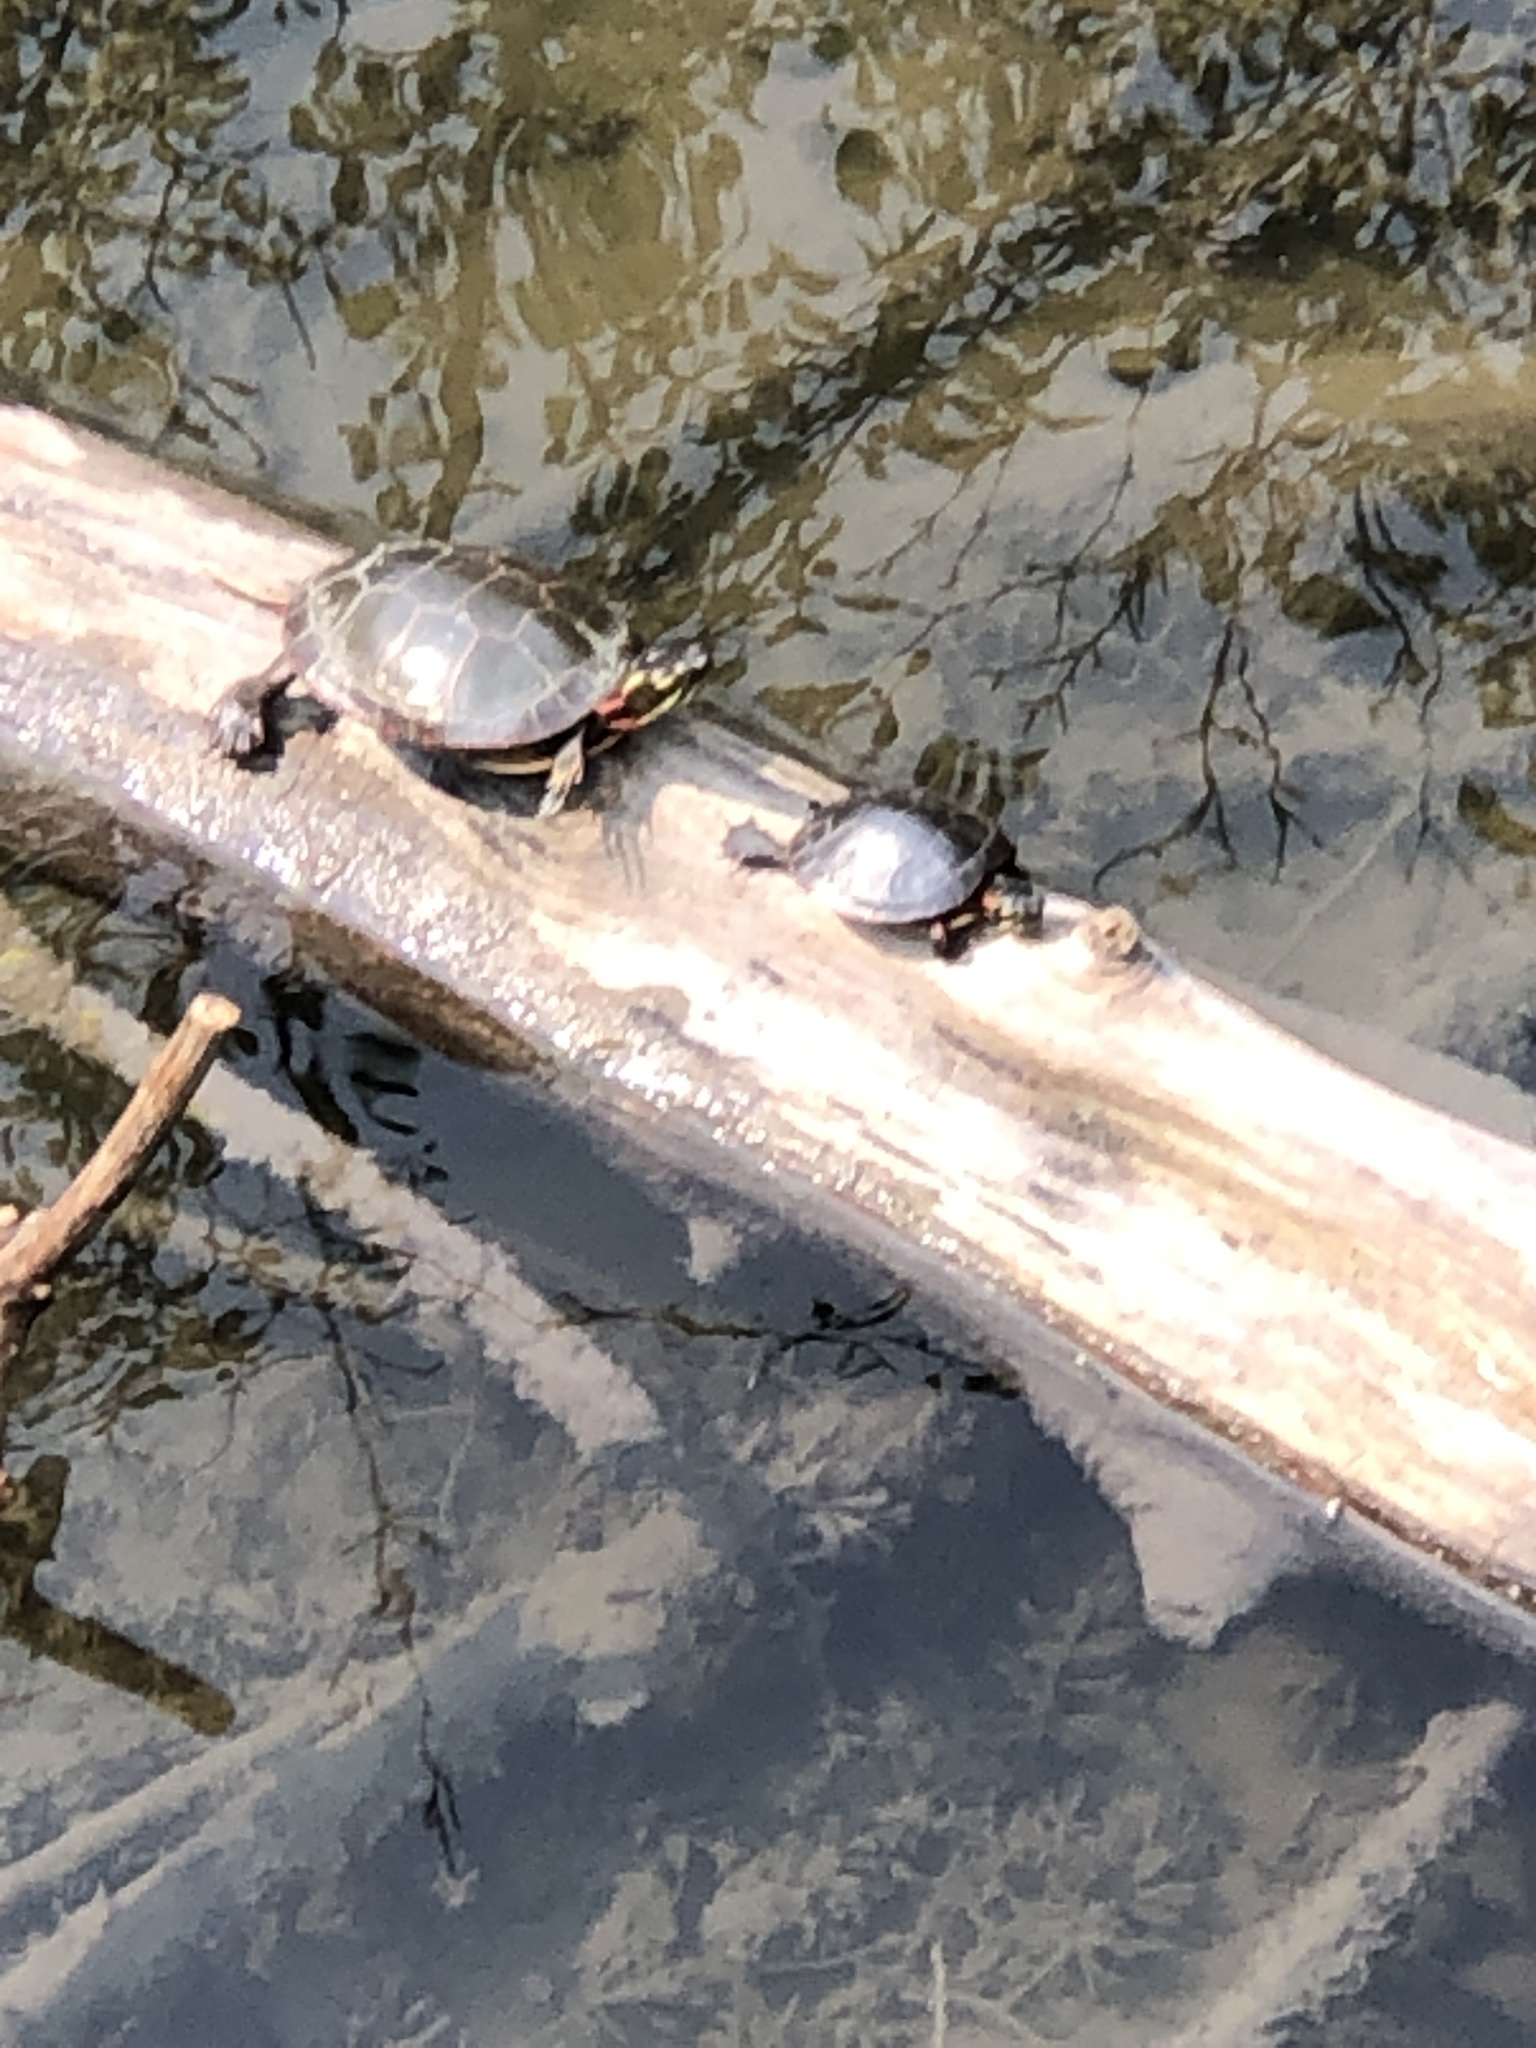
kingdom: Animalia
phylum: Chordata
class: Testudines
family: Emydidae
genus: Chrysemys
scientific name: Chrysemys picta
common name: Painted turtle
